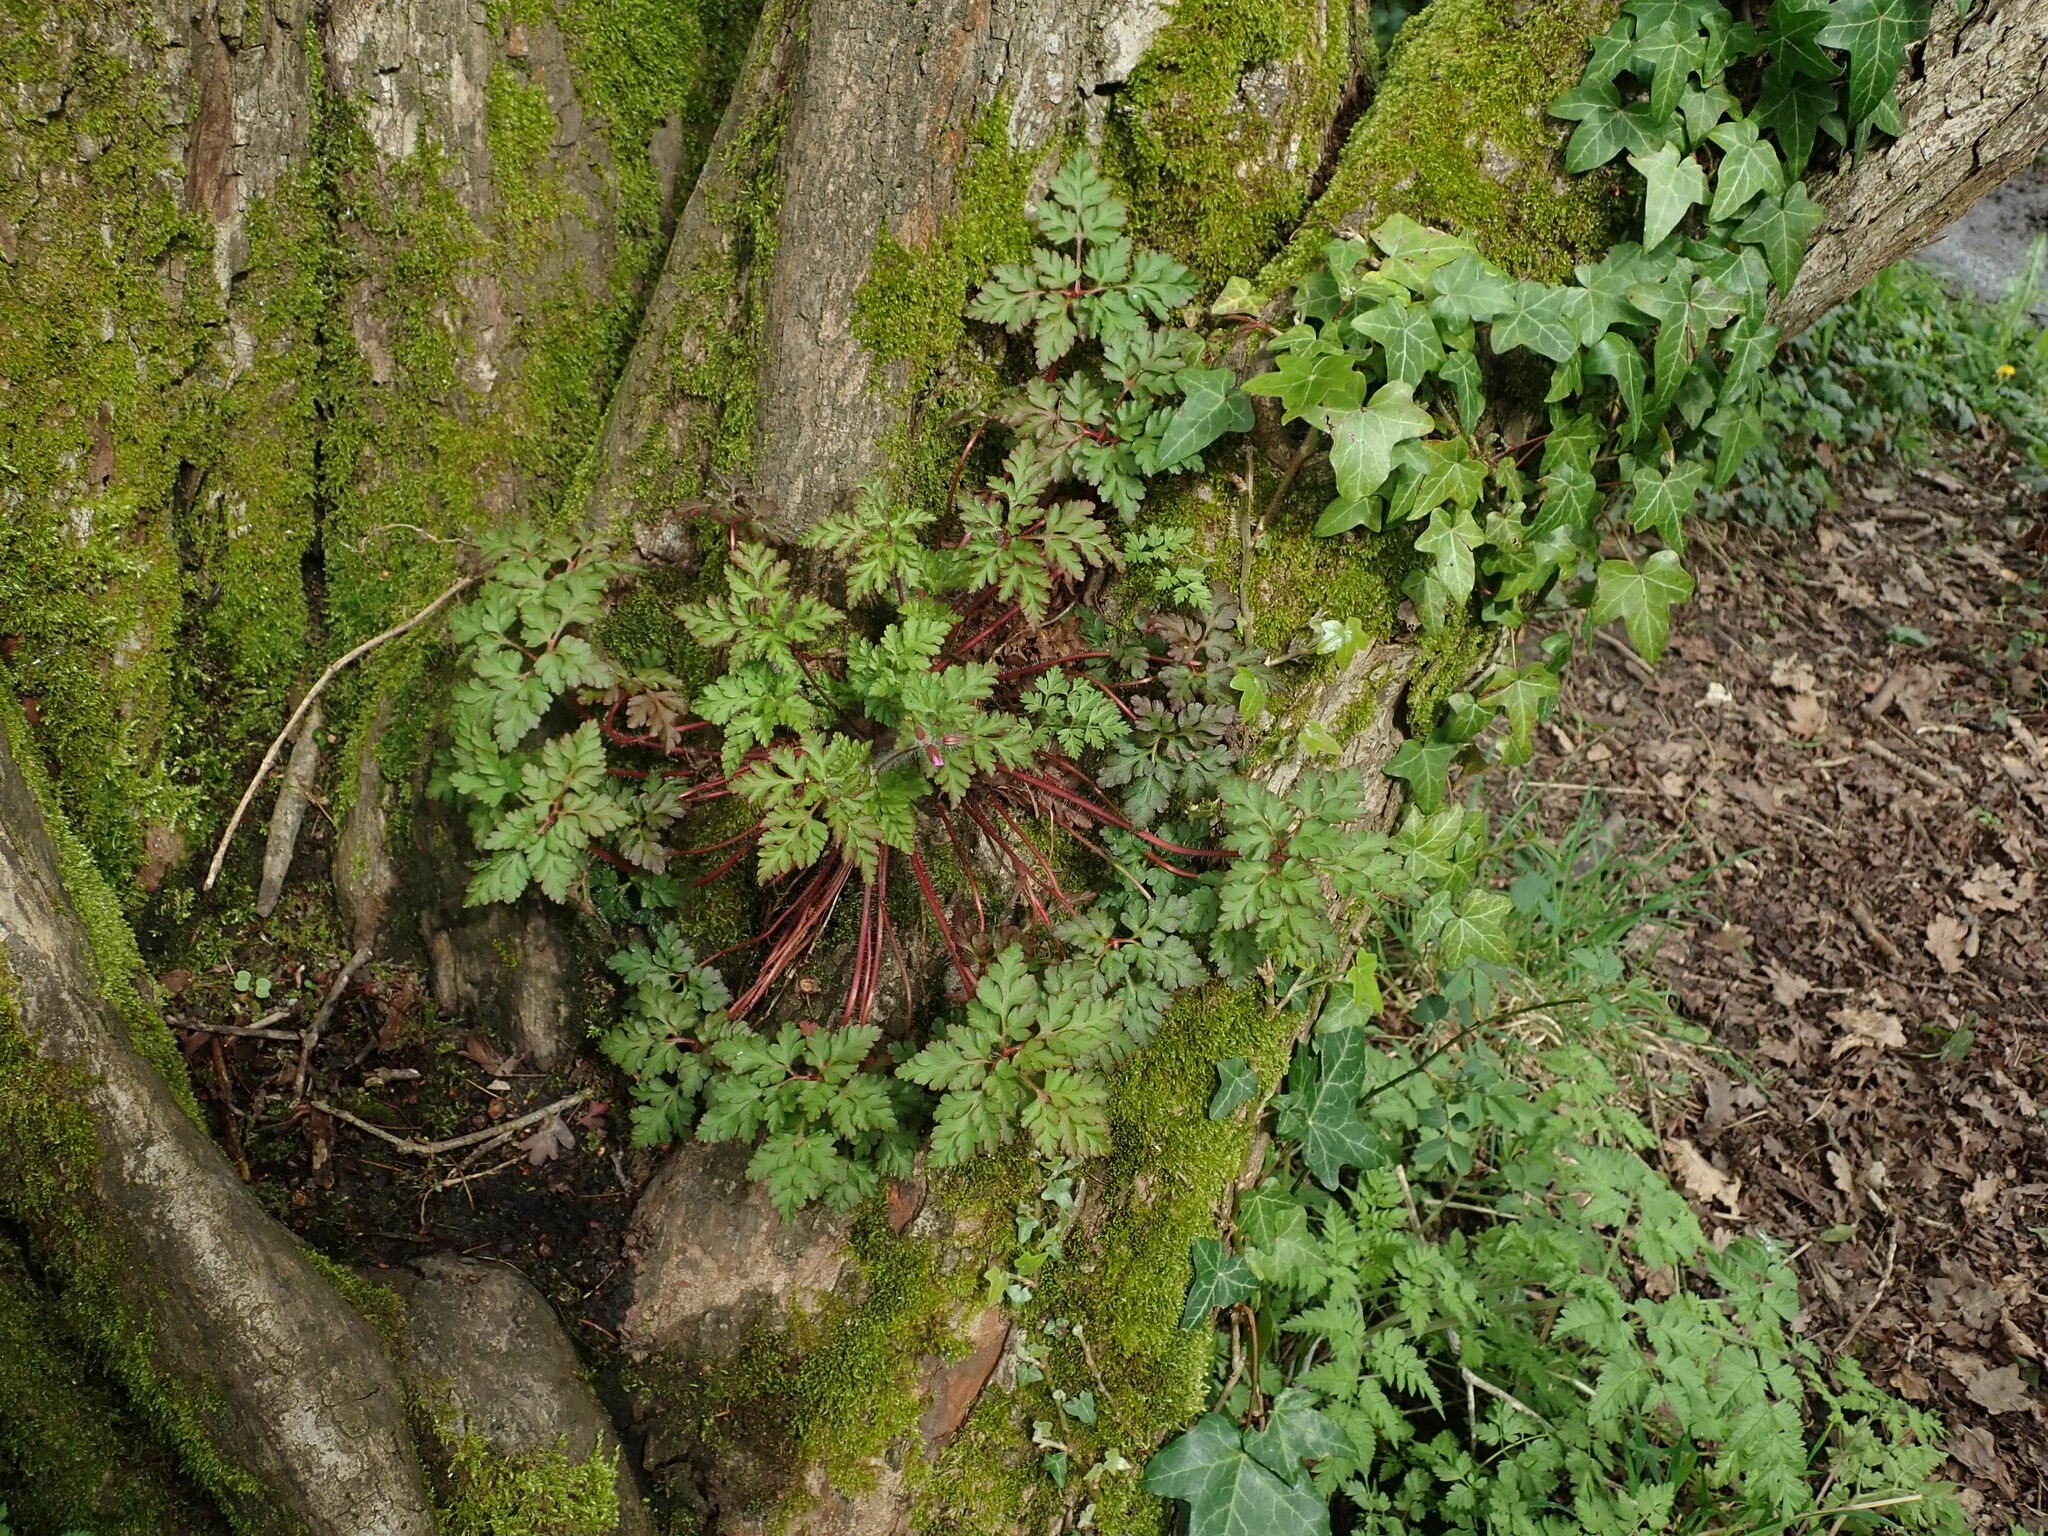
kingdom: Plantae
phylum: Tracheophyta
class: Magnoliopsida
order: Geraniales
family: Geraniaceae
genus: Geranium
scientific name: Geranium robertianum
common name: Herb-robert
